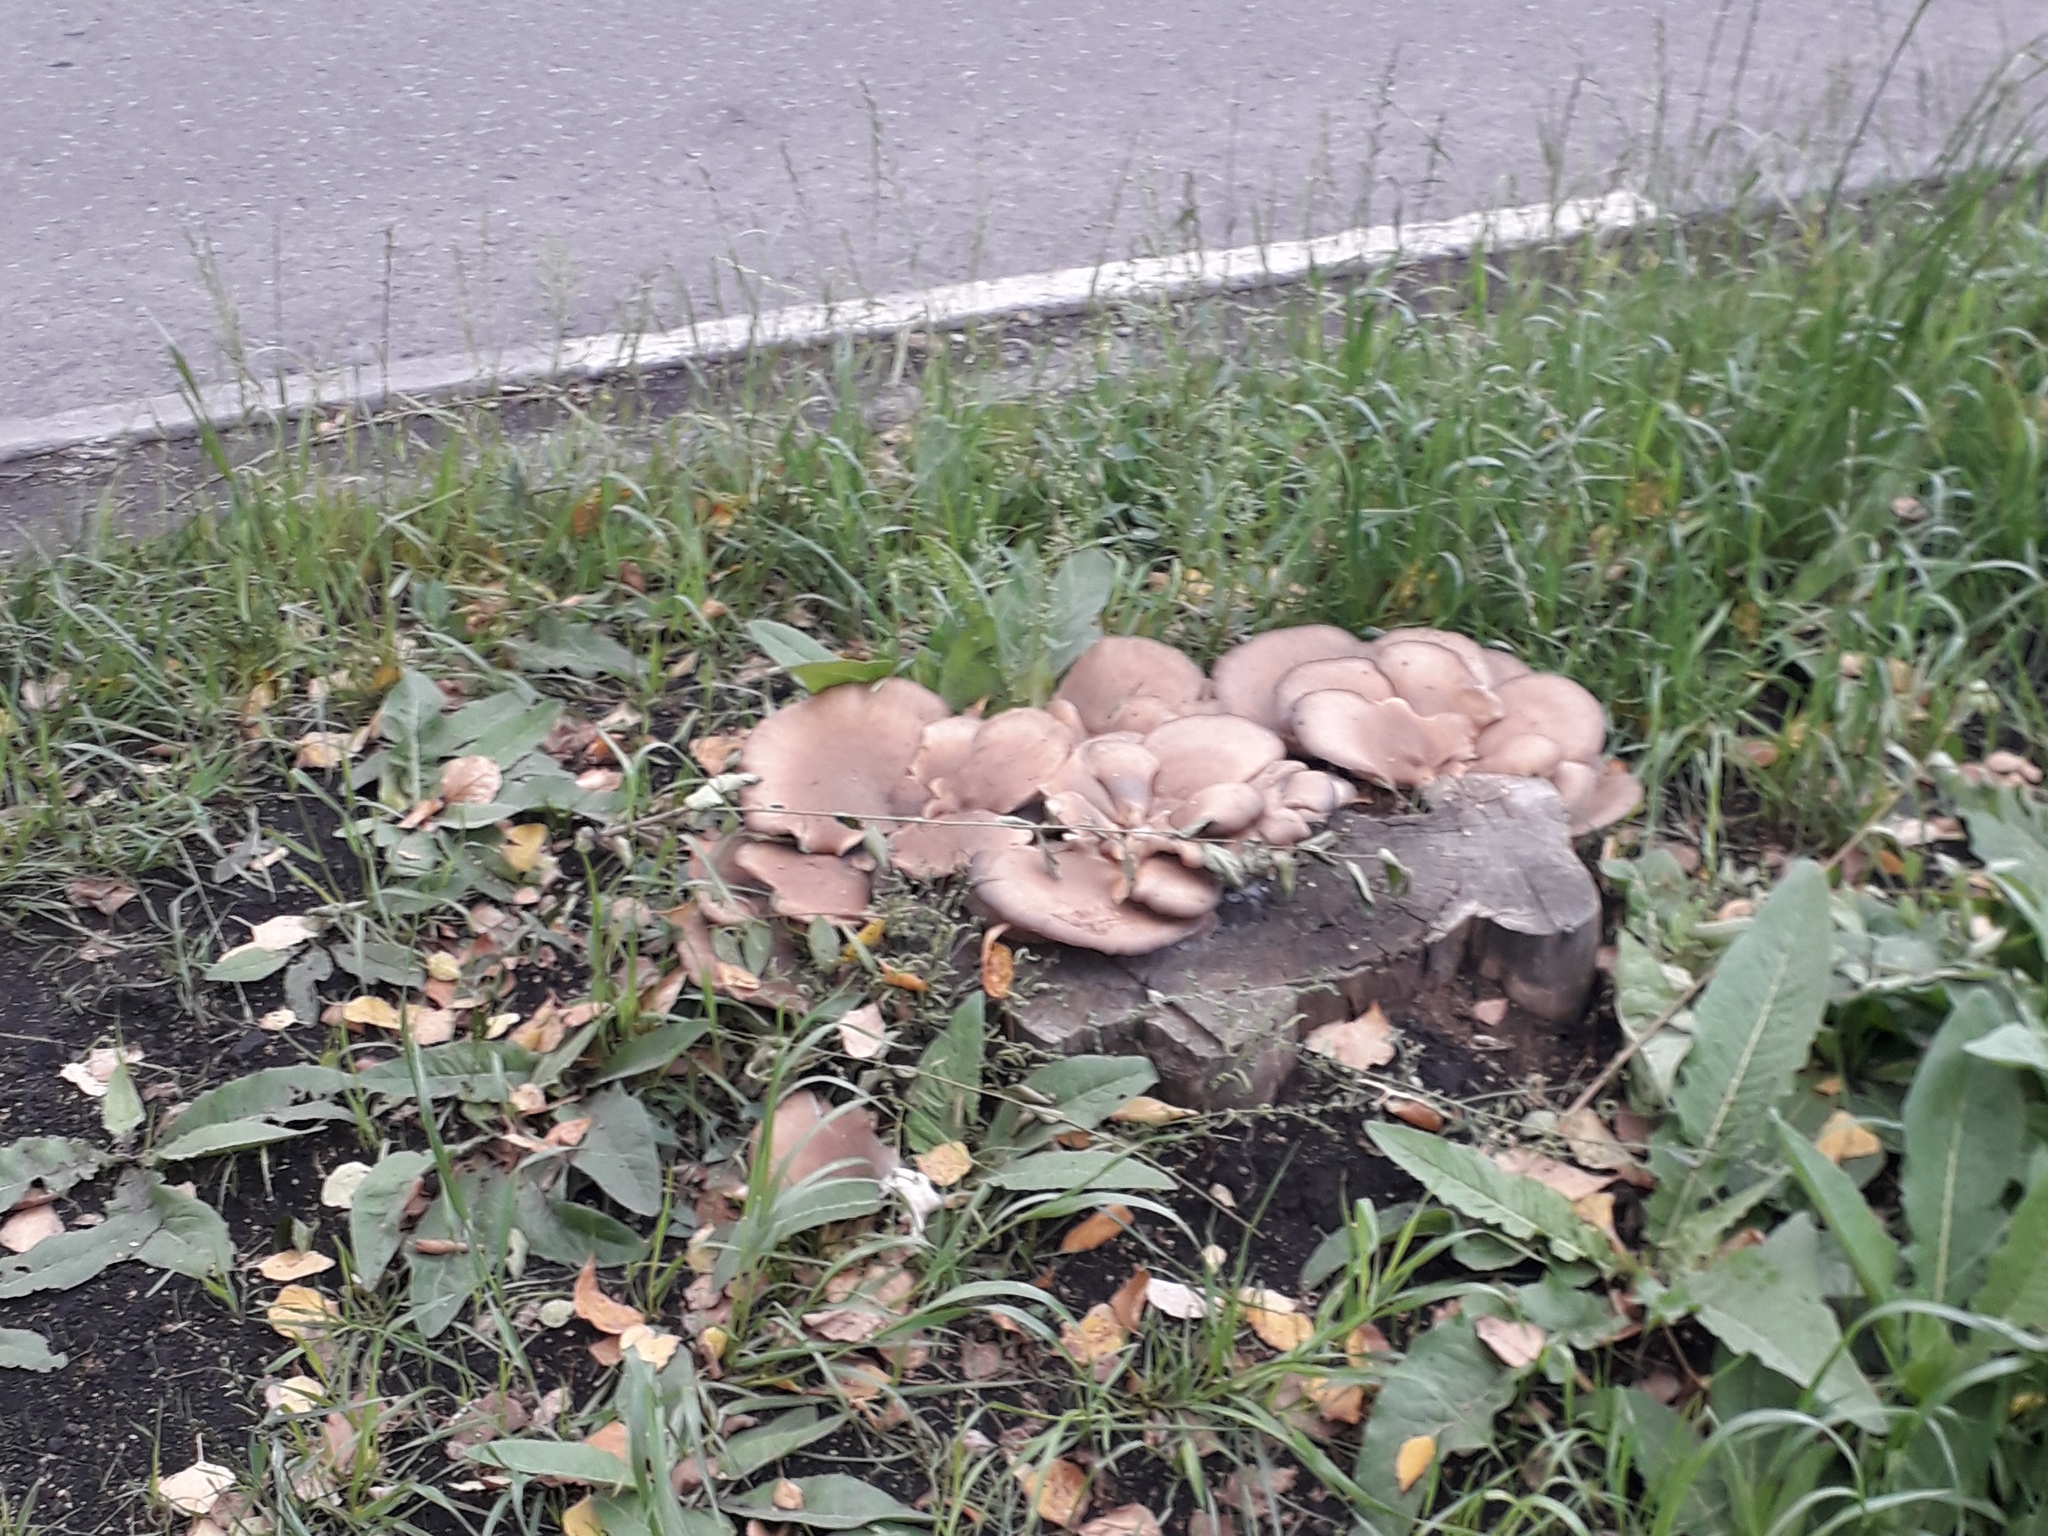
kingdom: Fungi
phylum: Basidiomycota
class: Agaricomycetes
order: Agaricales
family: Pleurotaceae
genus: Pleurotus
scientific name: Pleurotus ostreatus
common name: Oyster mushroom
